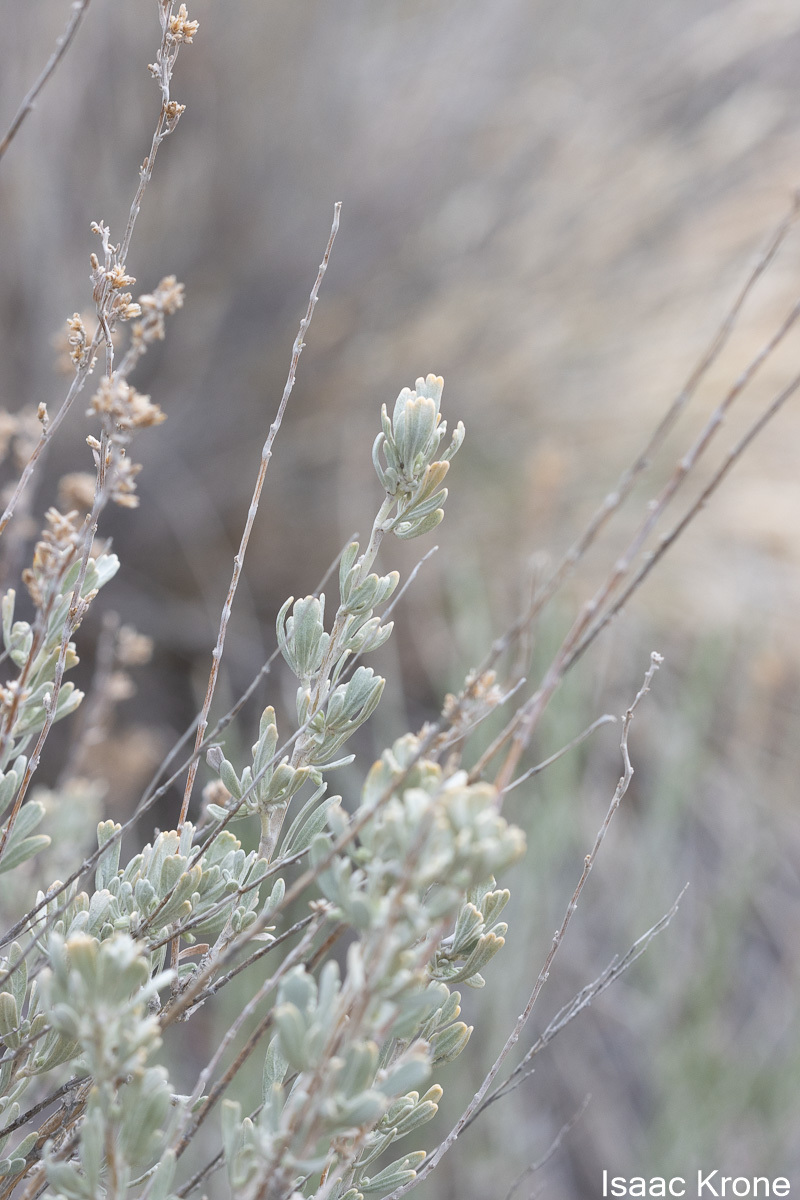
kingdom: Plantae
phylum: Tracheophyta
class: Magnoliopsida
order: Asterales
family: Asteraceae
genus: Artemisia
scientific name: Artemisia tridentata
